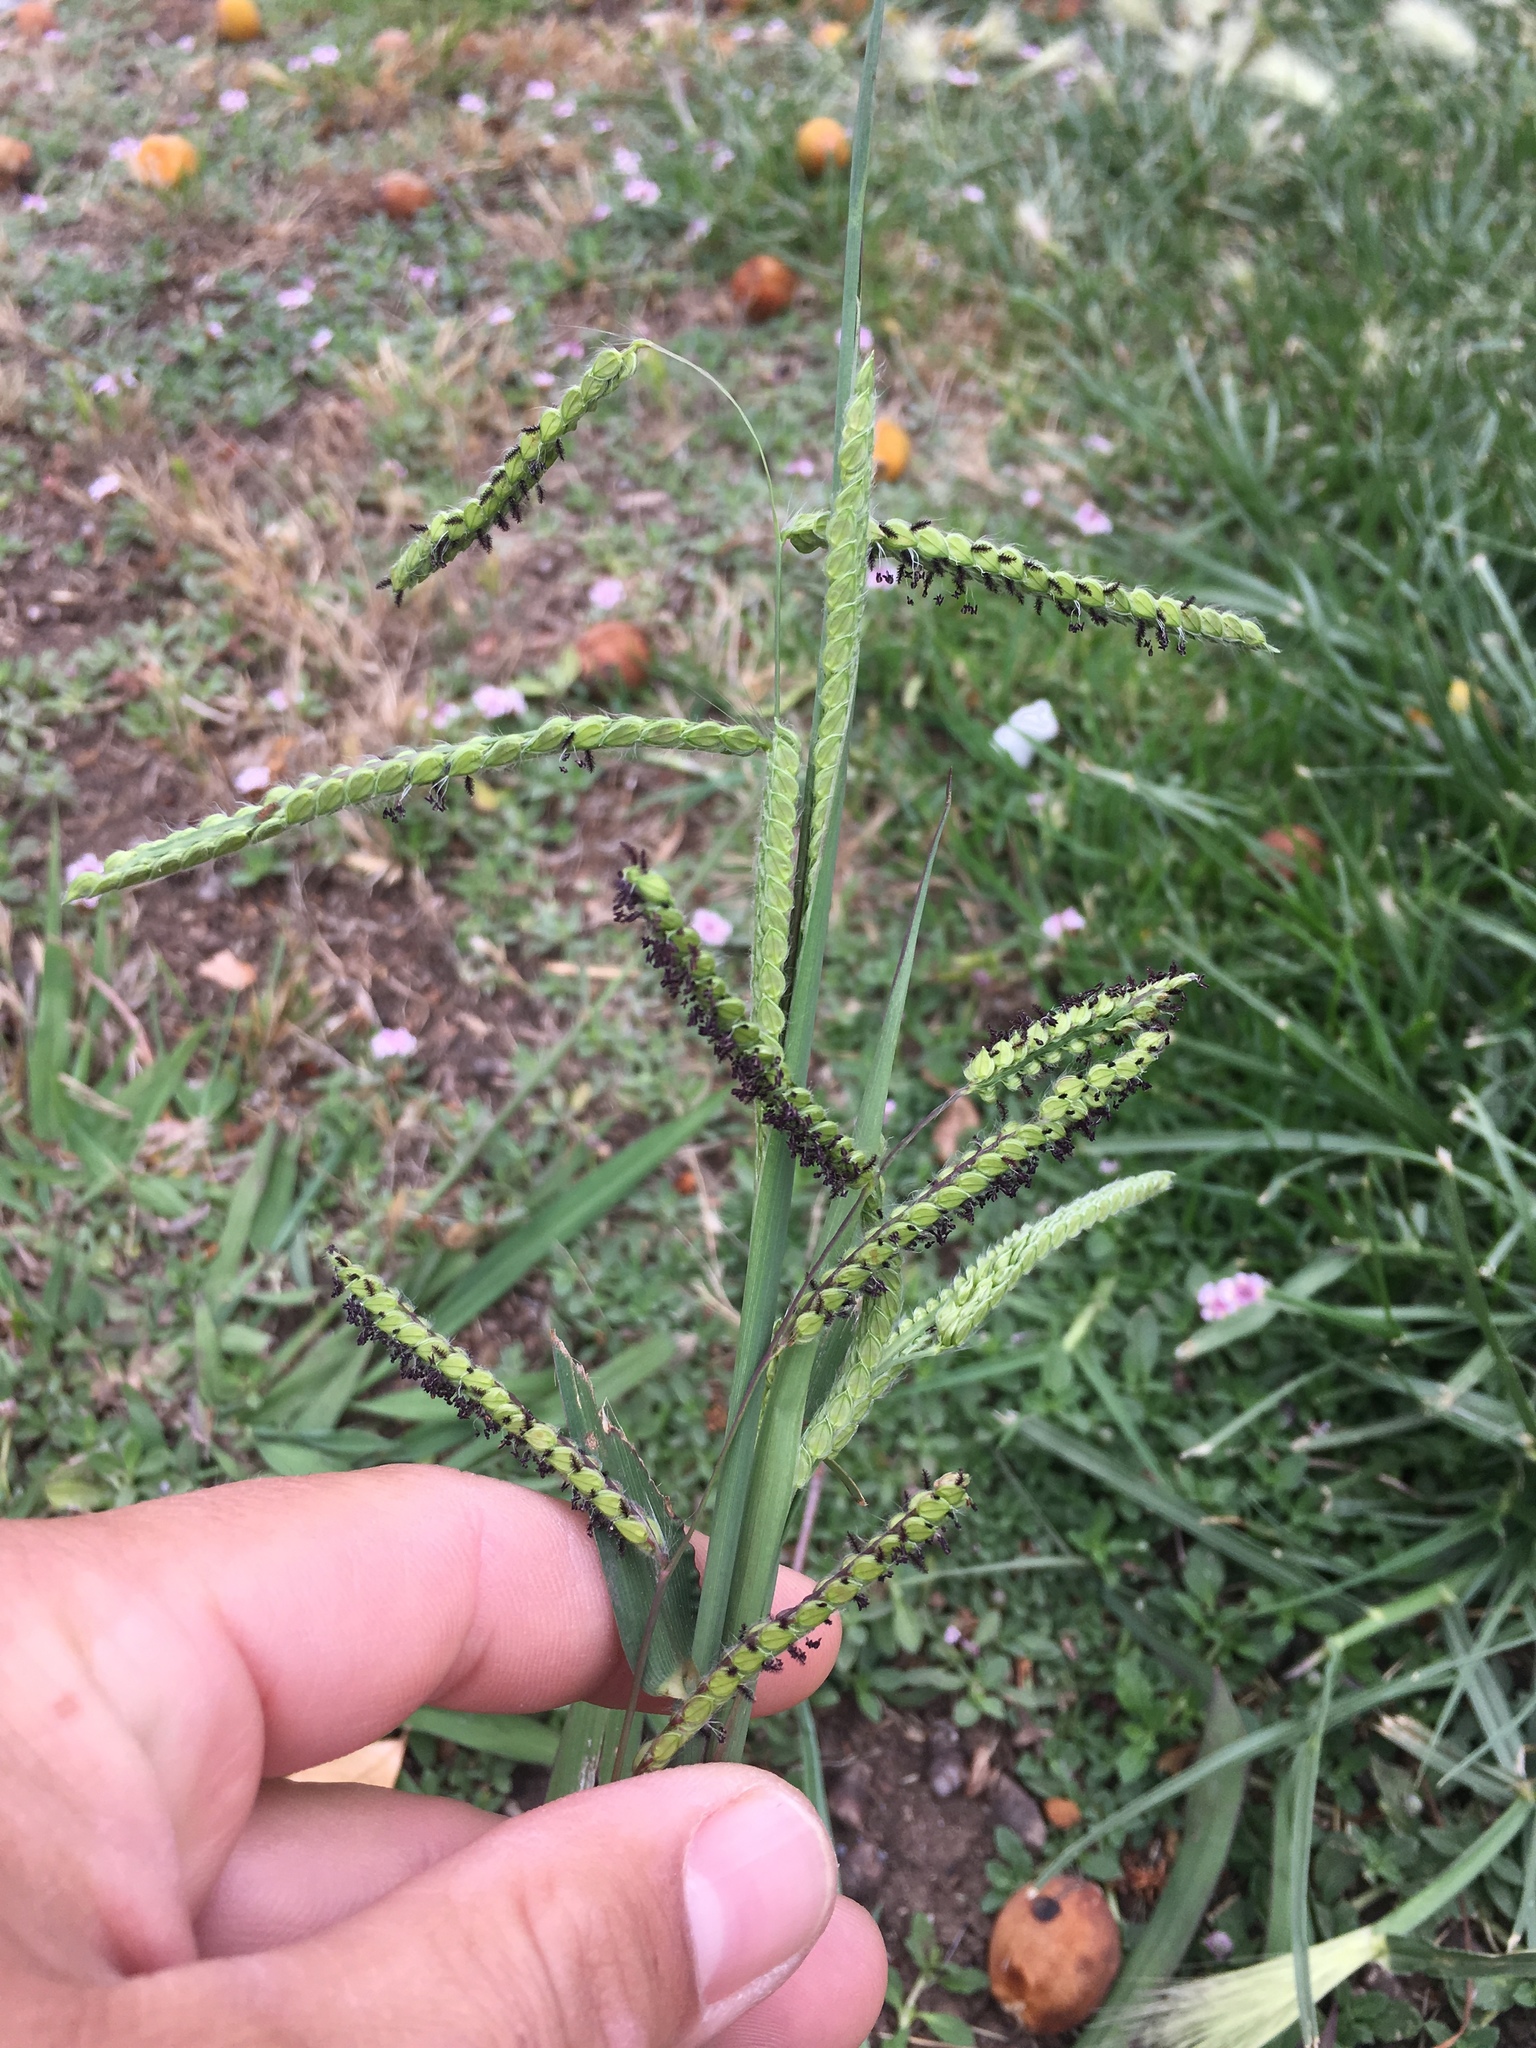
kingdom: Plantae
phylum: Tracheophyta
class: Liliopsida
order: Poales
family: Poaceae
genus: Paspalum
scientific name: Paspalum dilatatum
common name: Dallisgrass
